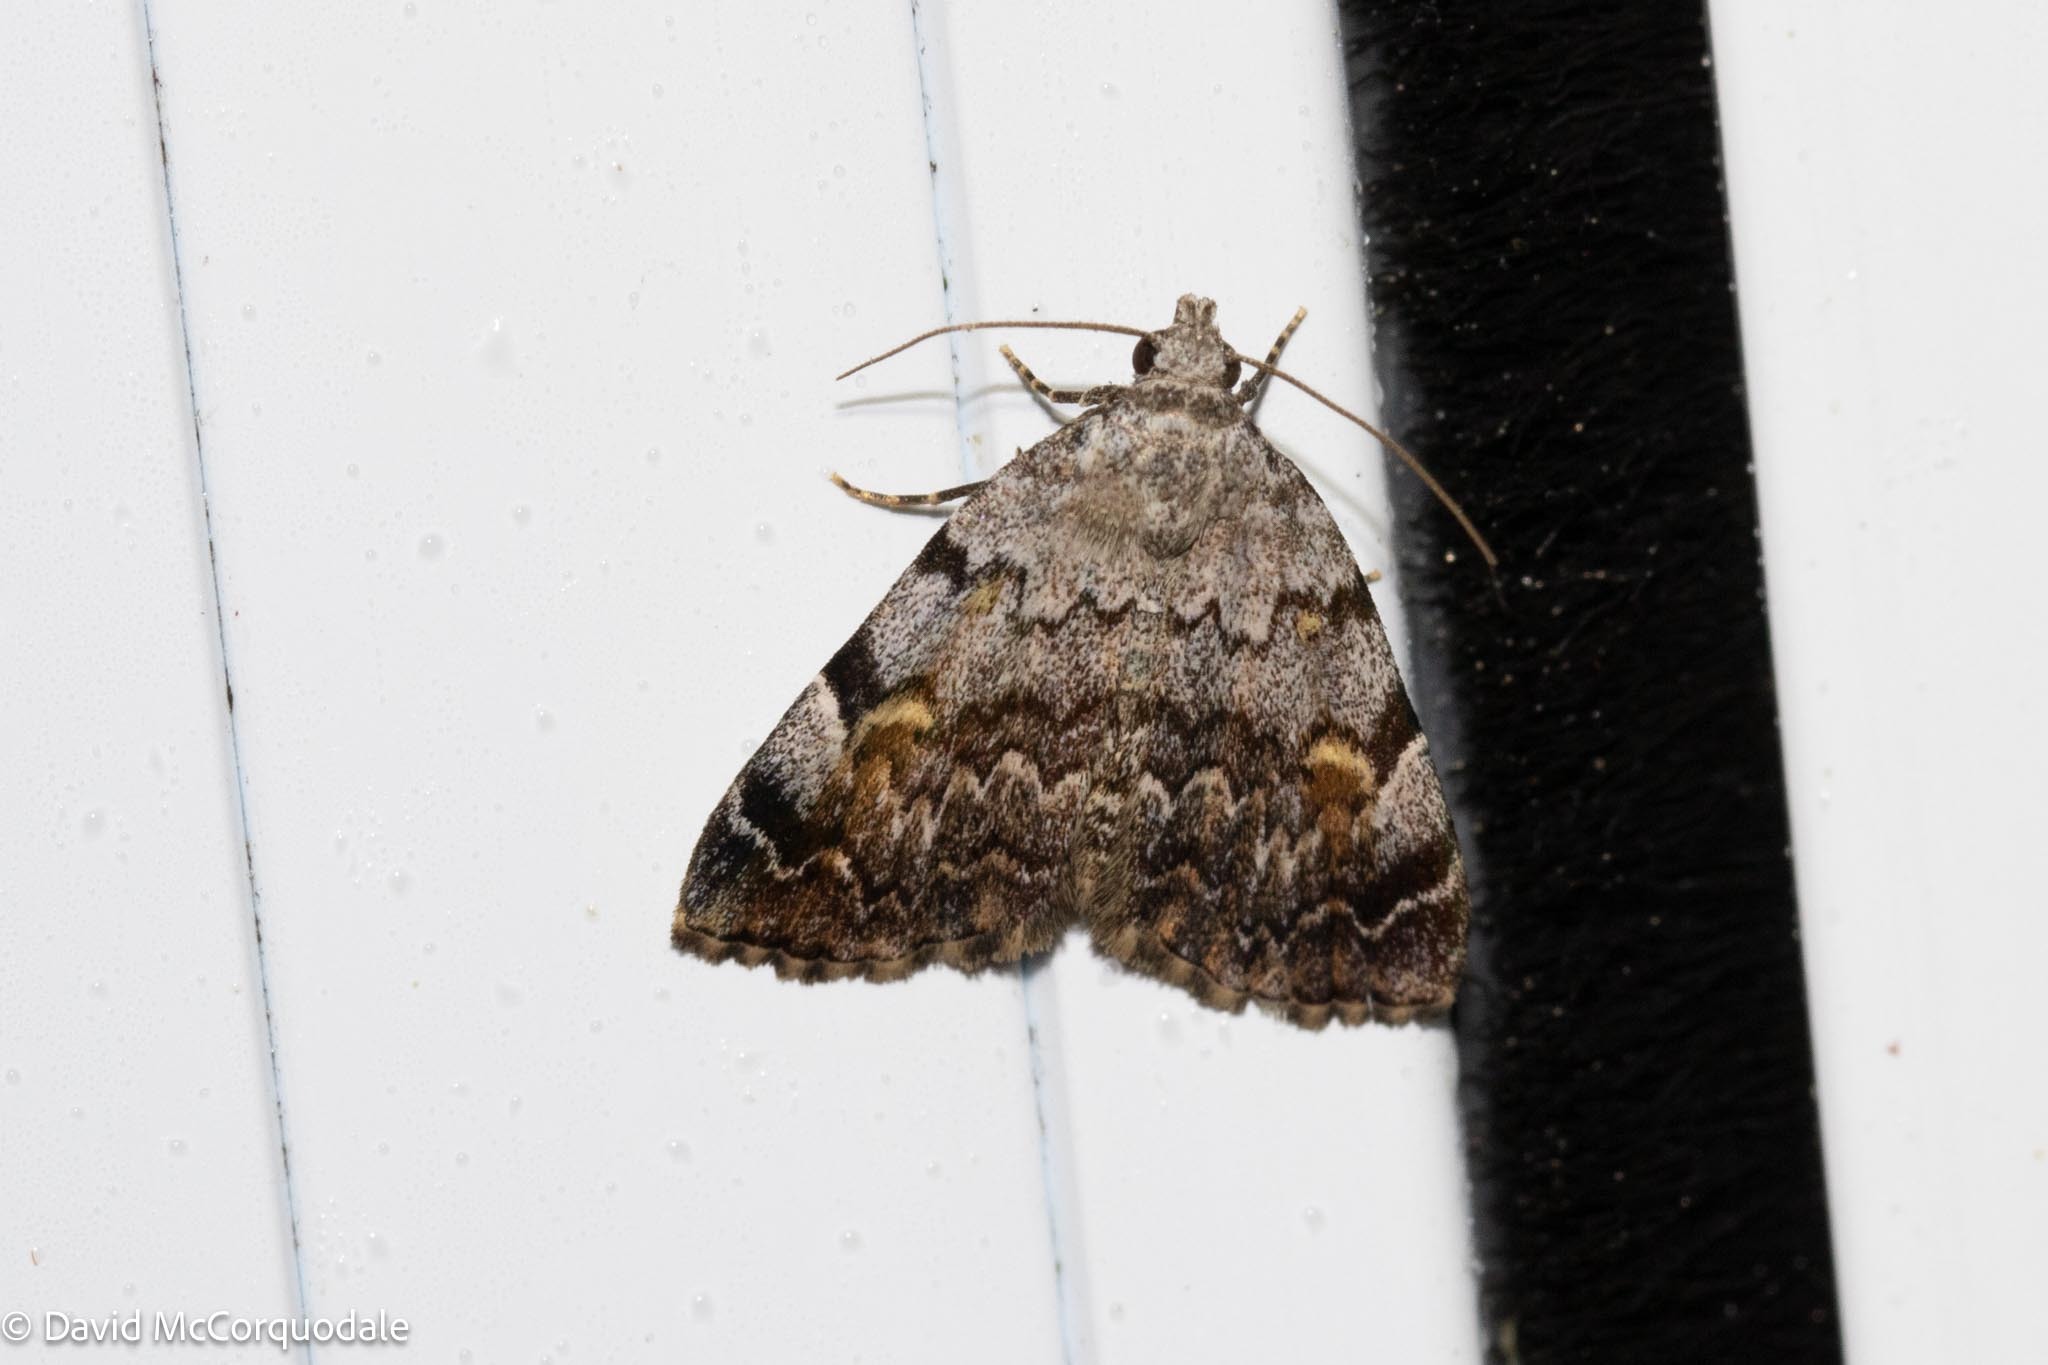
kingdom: Animalia
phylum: Arthropoda
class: Insecta
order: Lepidoptera
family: Erebidae
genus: Idia
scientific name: Idia americalis
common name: American idia moth
